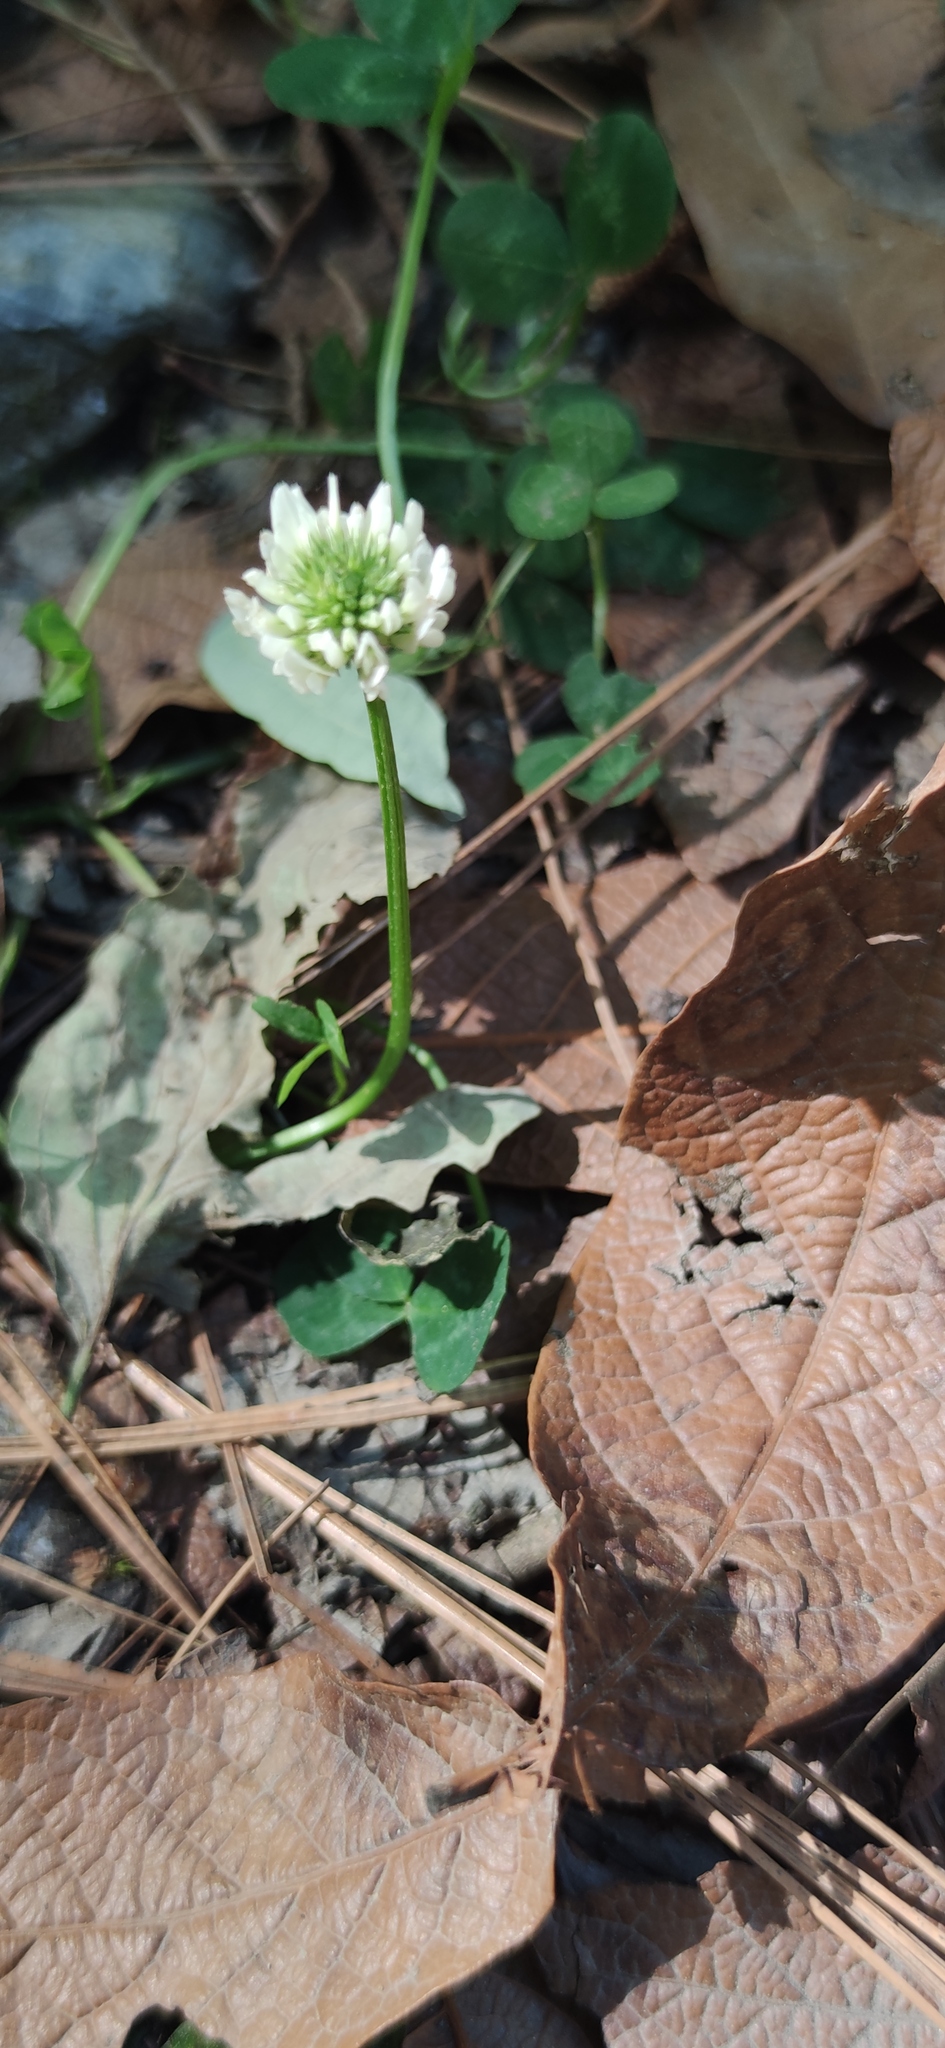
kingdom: Plantae
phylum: Tracheophyta
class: Magnoliopsida
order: Fabales
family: Fabaceae
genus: Trifolium
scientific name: Trifolium repens
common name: White clover
